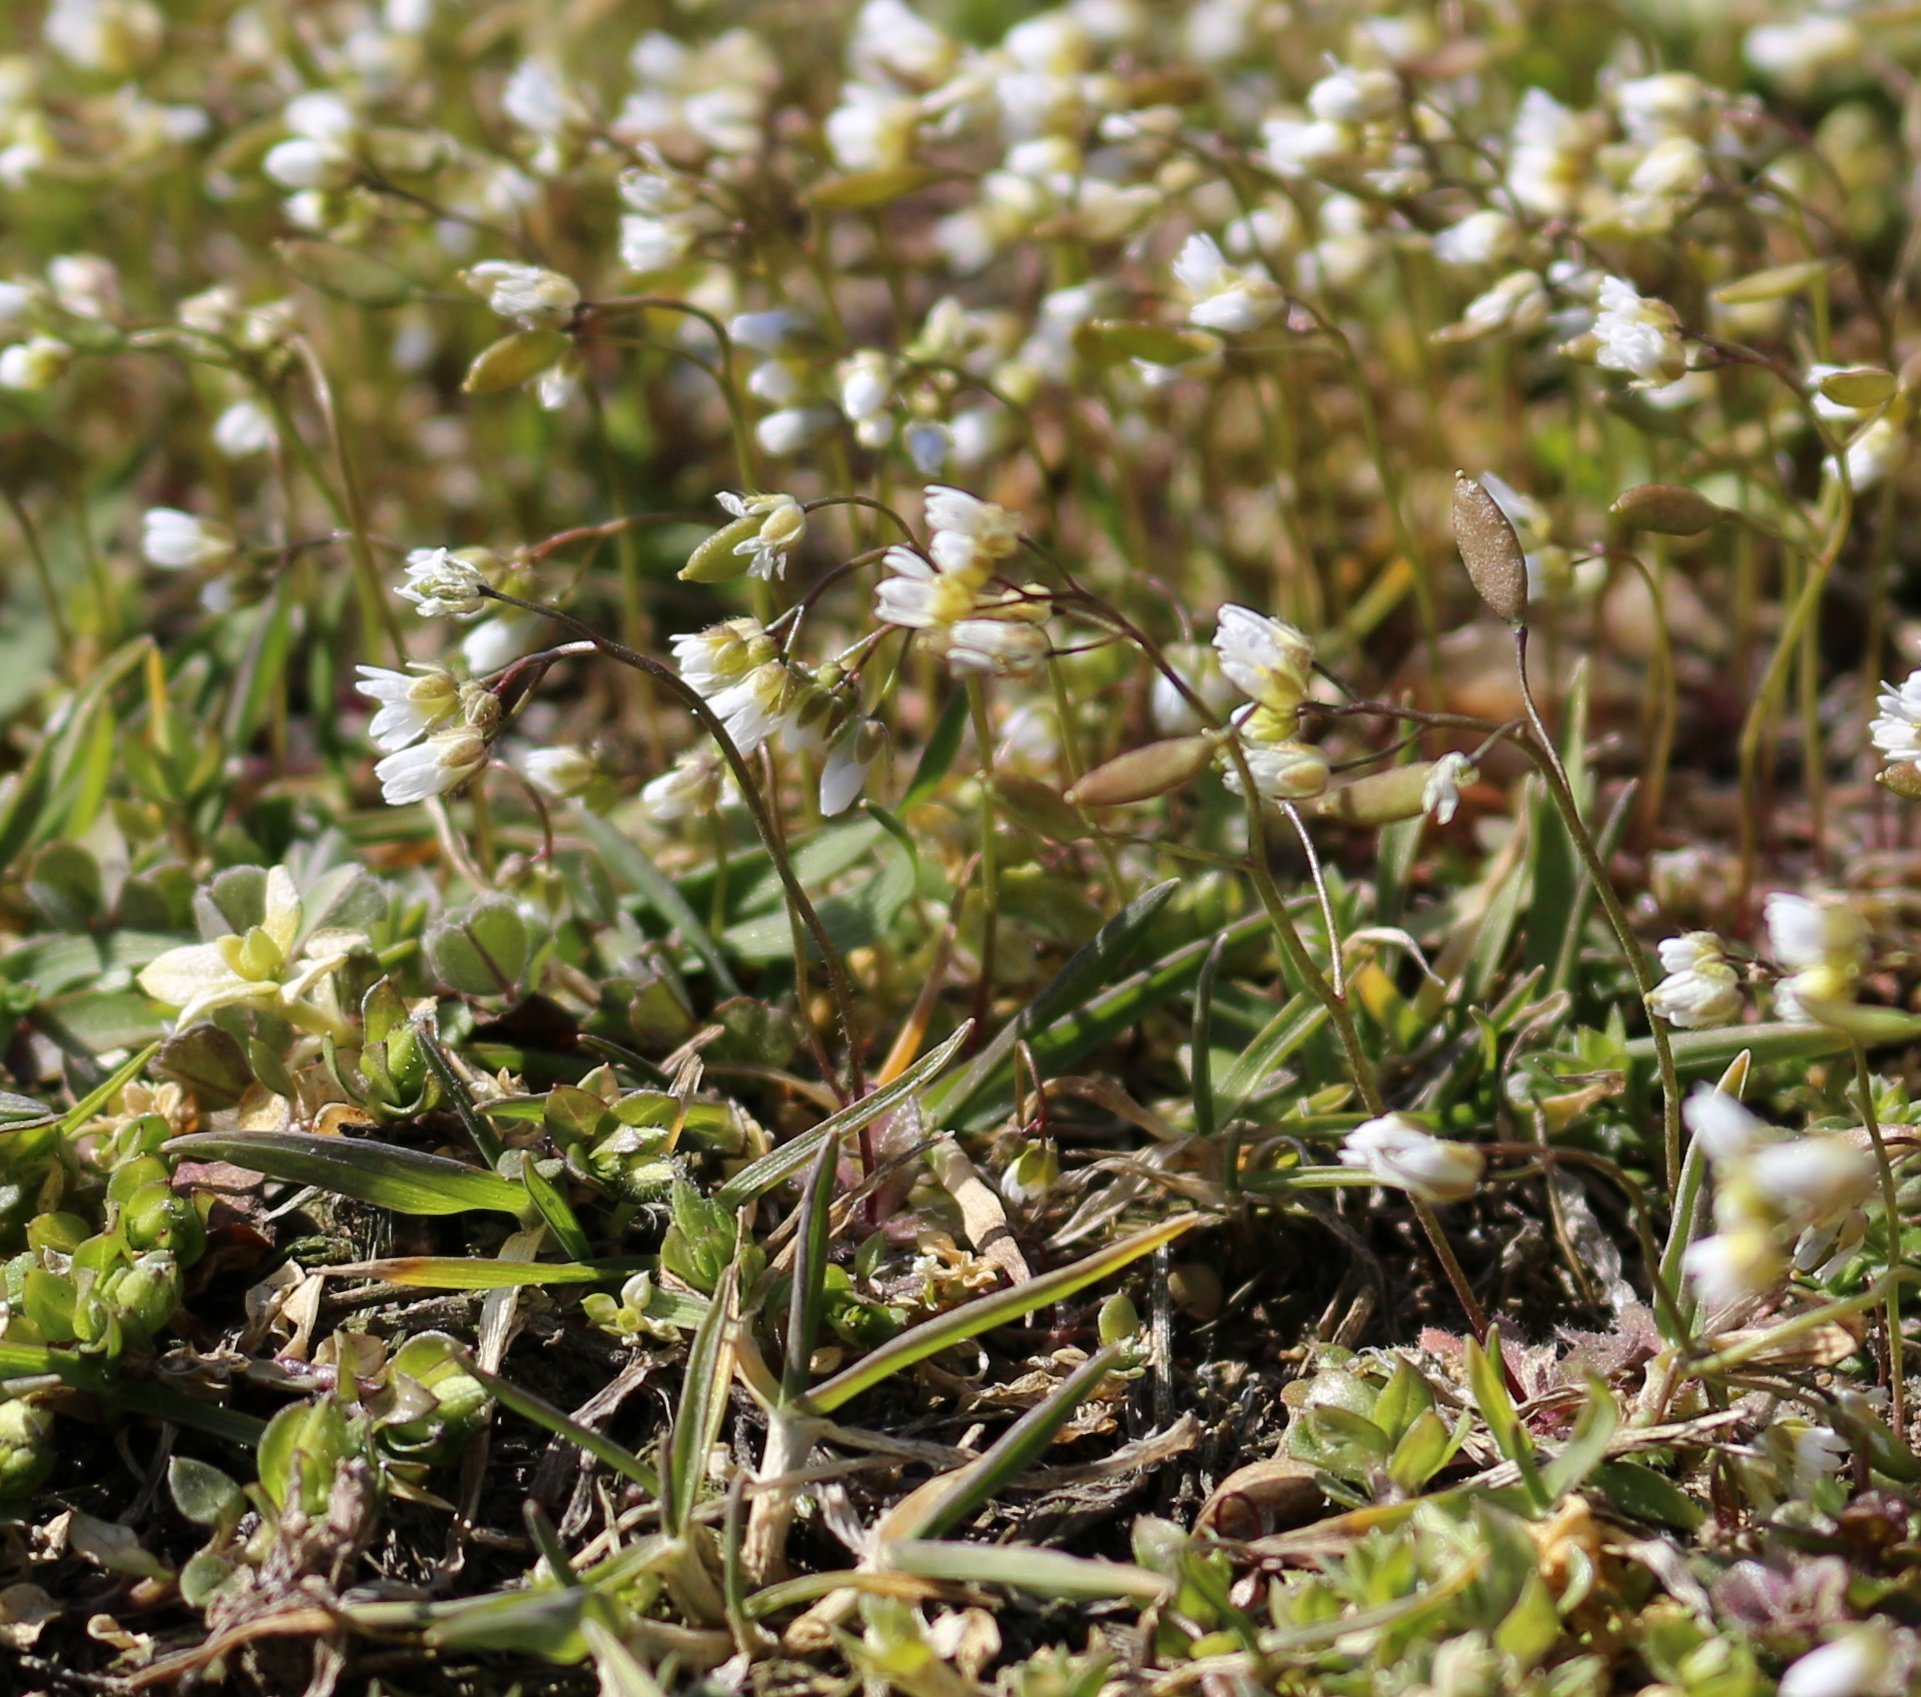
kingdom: Plantae
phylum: Tracheophyta
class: Magnoliopsida
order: Brassicales
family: Brassicaceae
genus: Draba
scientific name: Draba verna
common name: Spring draba
